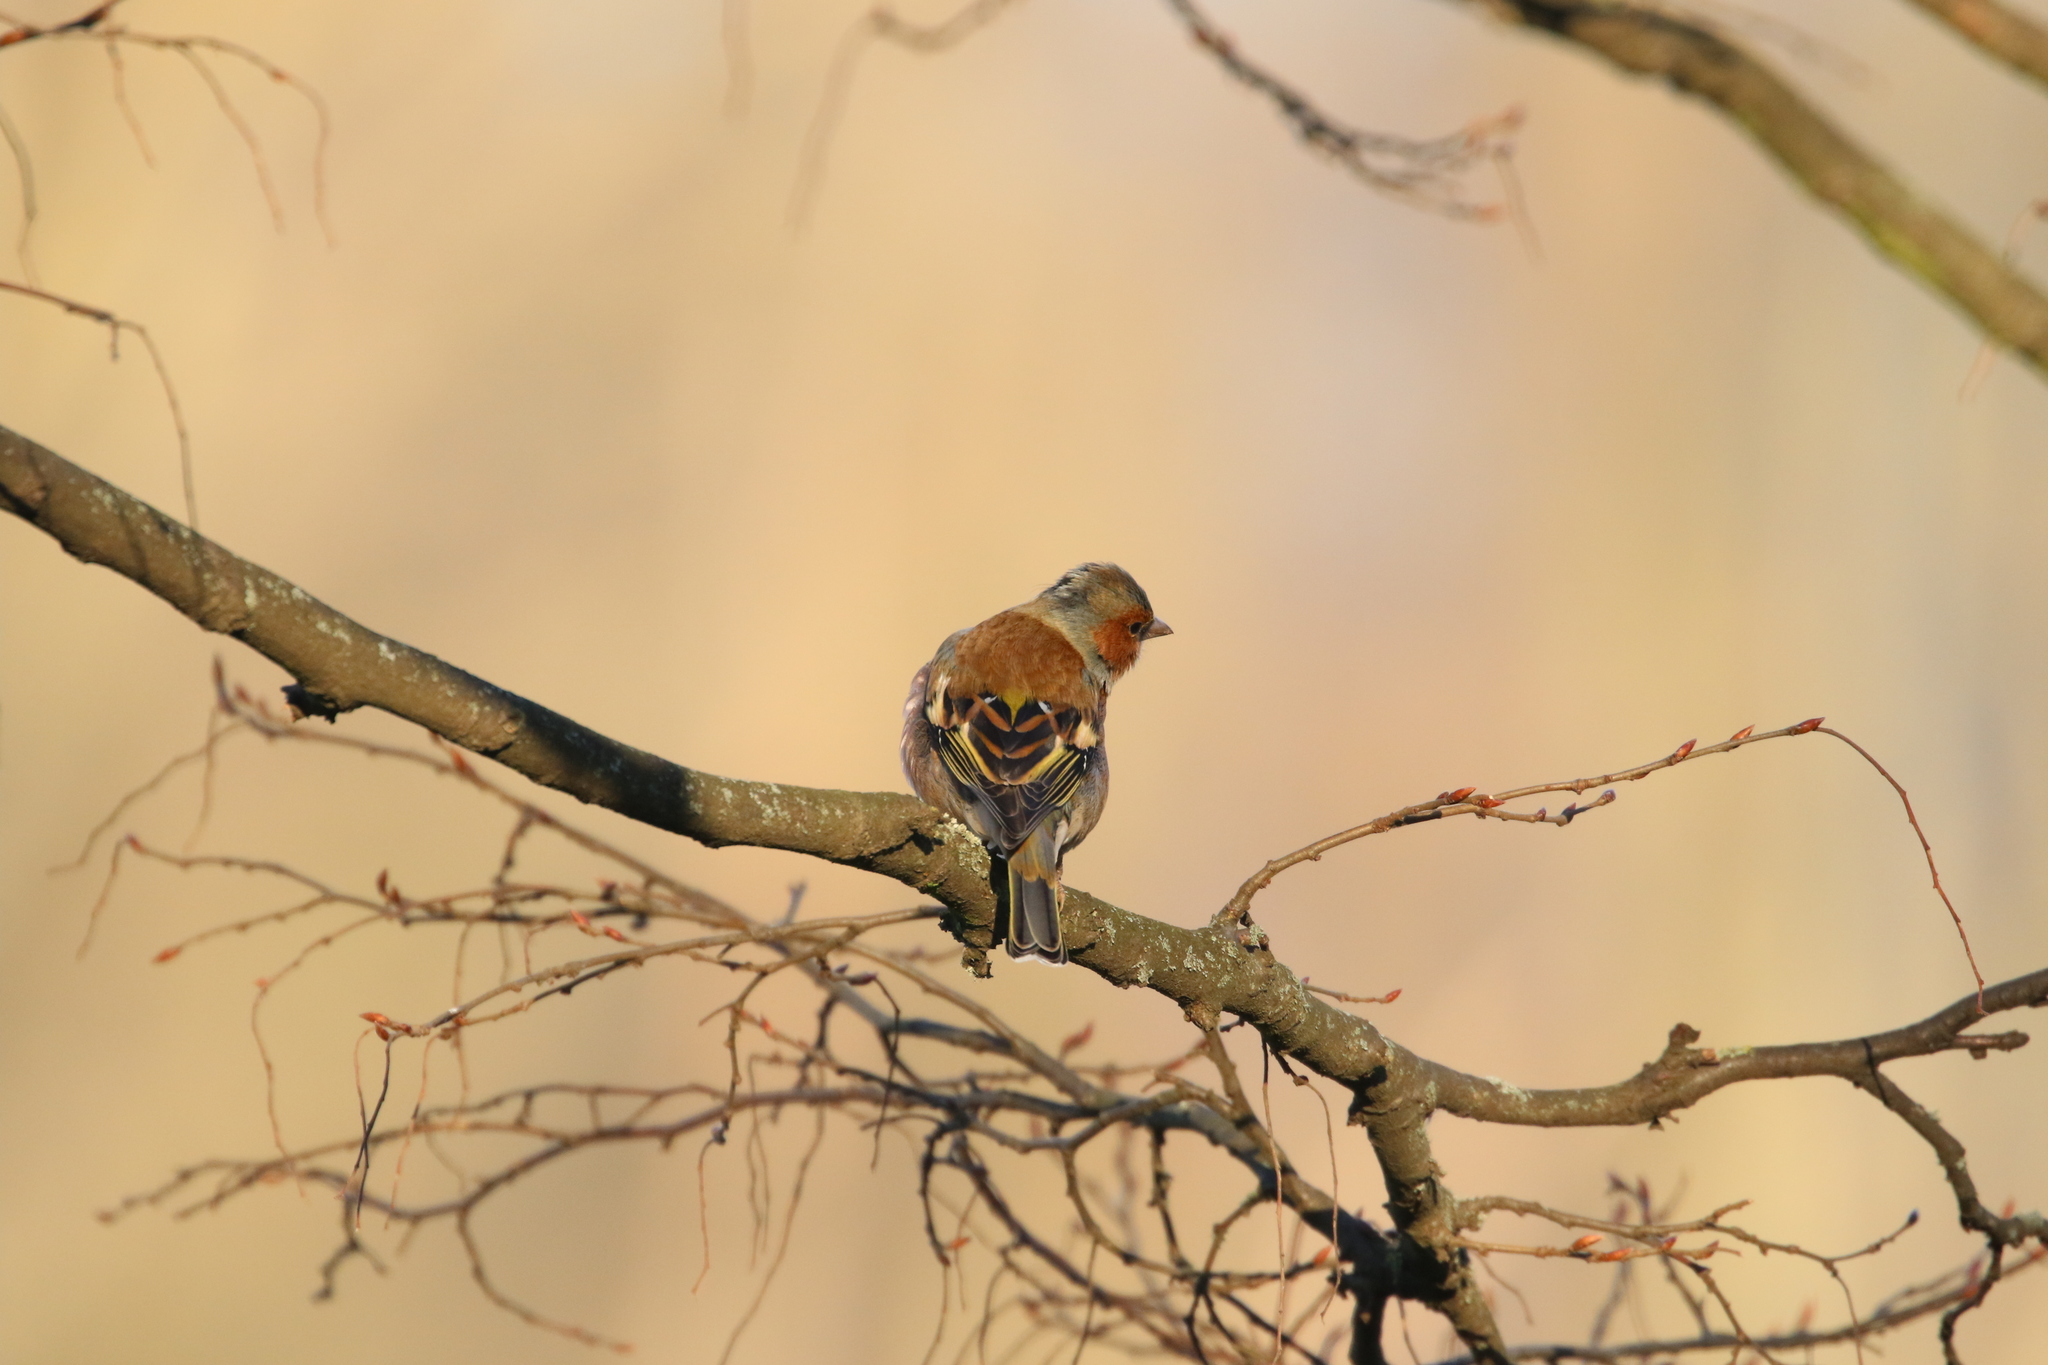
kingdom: Animalia
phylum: Chordata
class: Aves
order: Passeriformes
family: Fringillidae
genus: Fringilla
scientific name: Fringilla coelebs
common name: Common chaffinch
